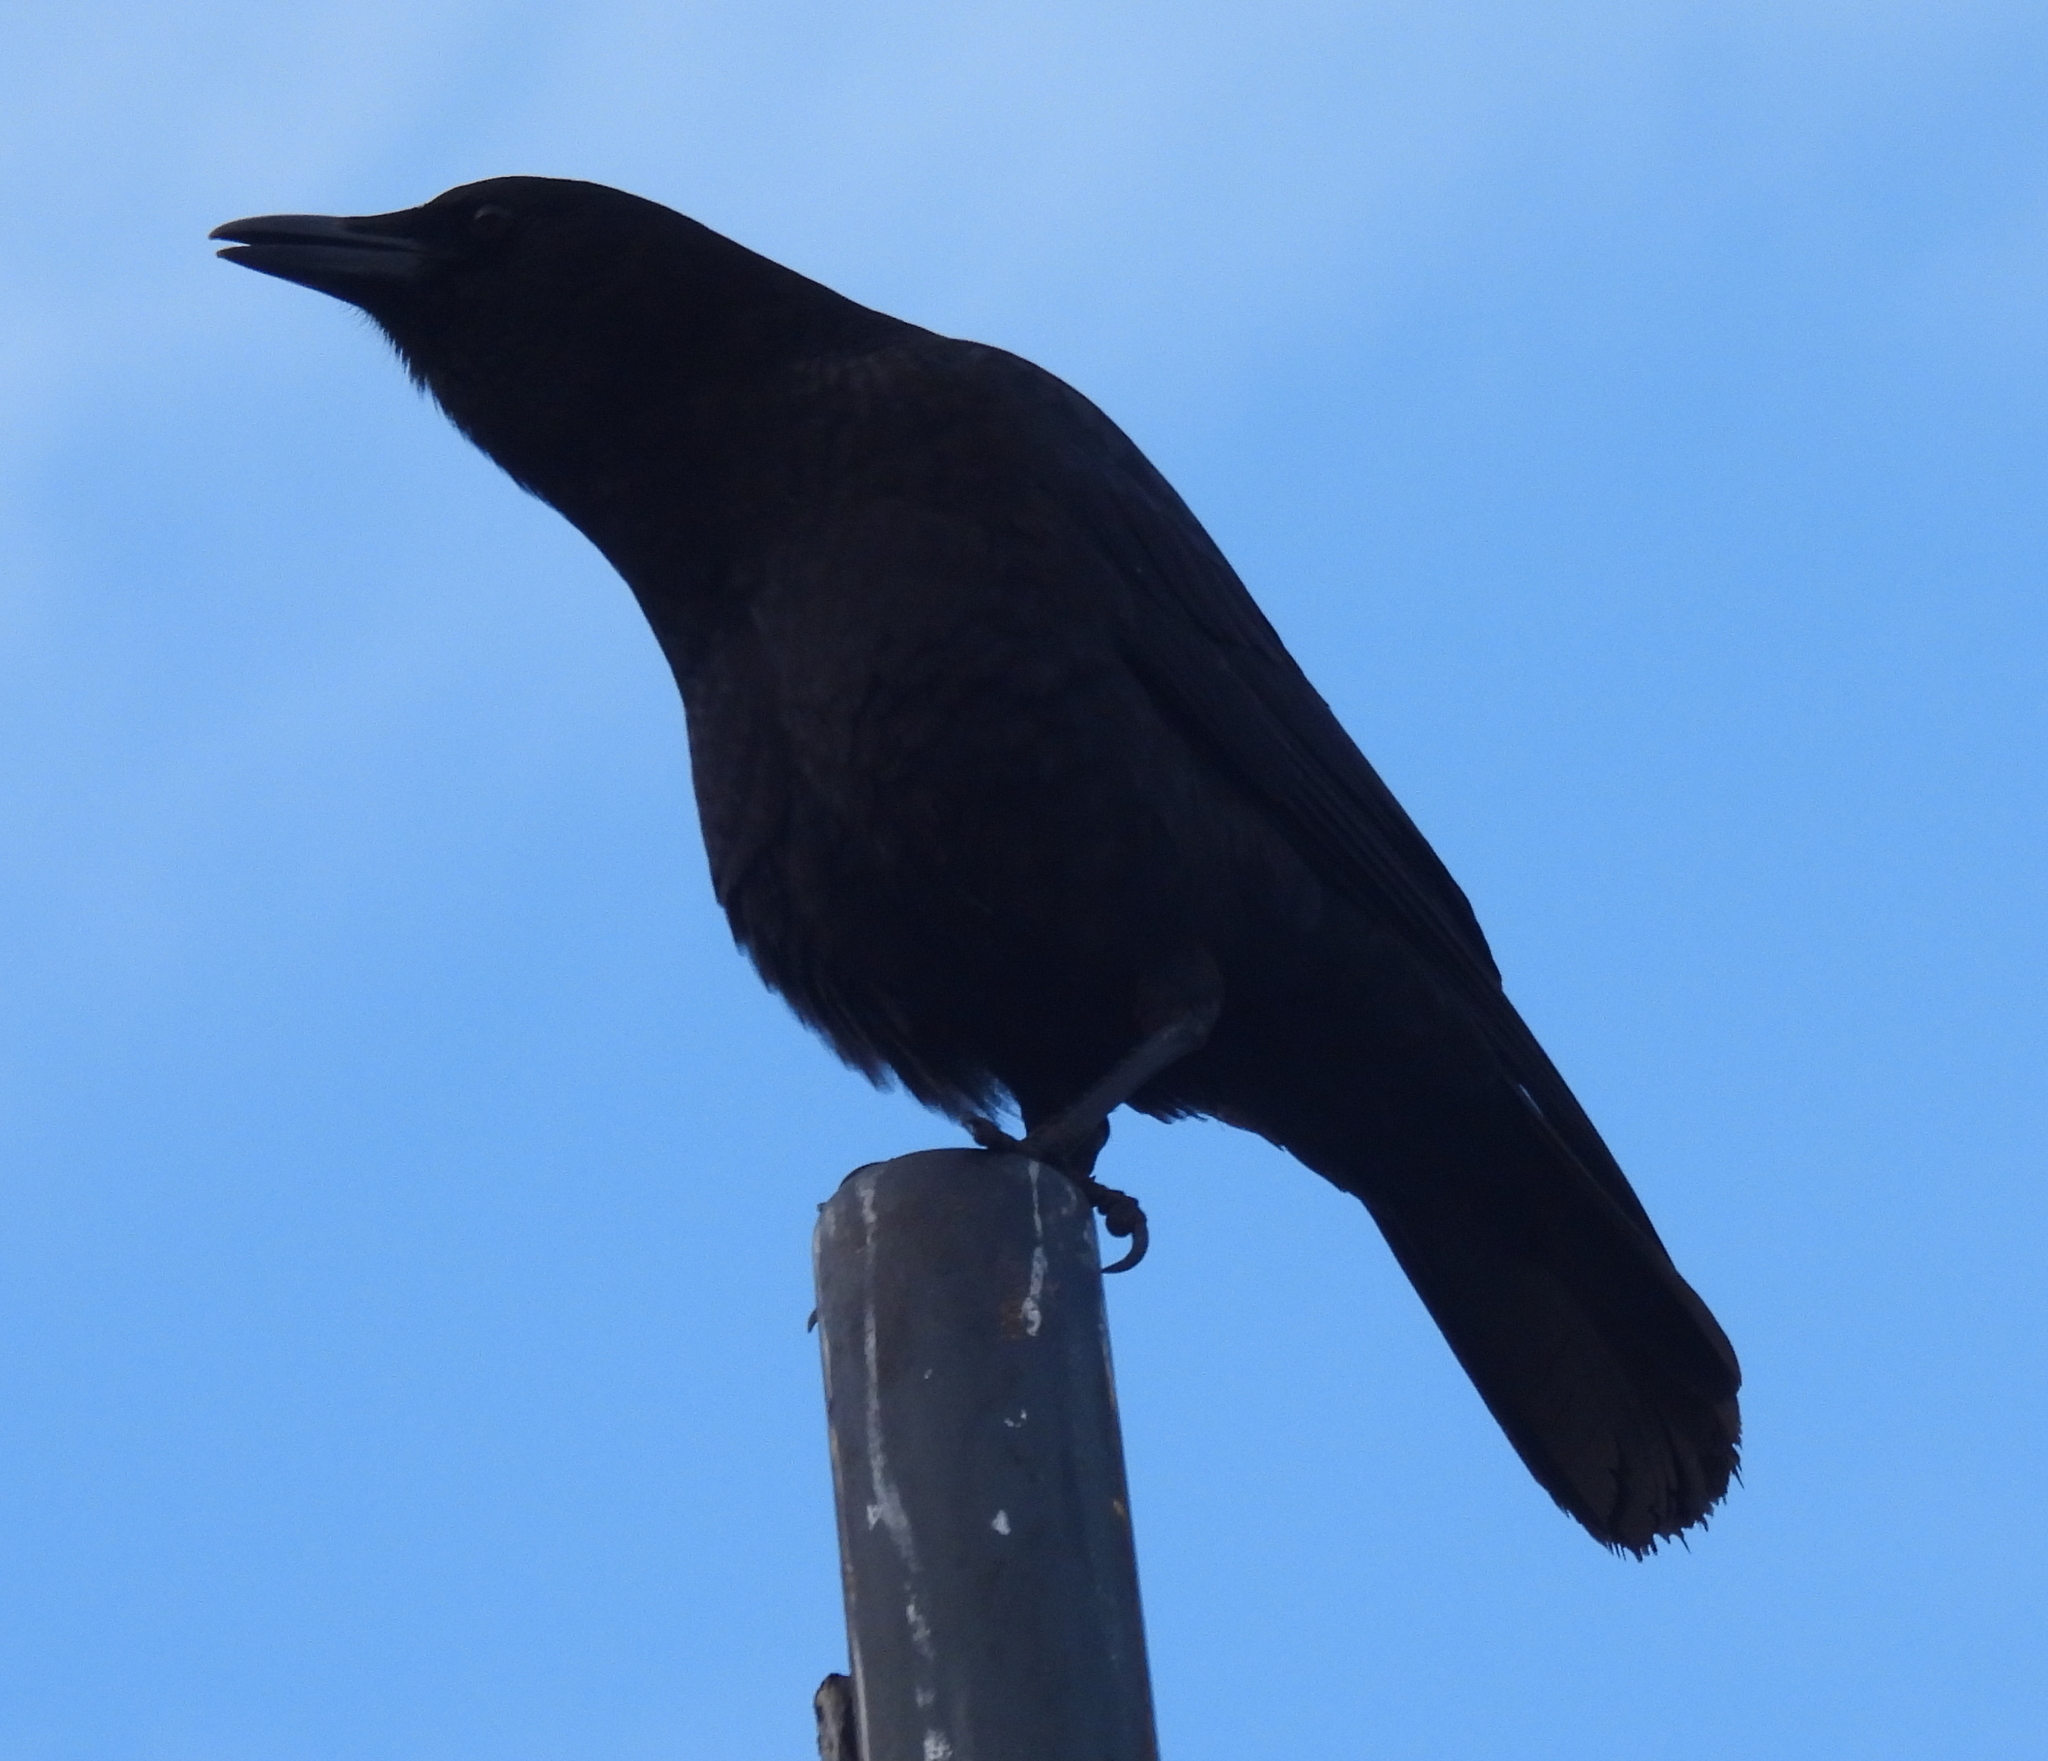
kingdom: Animalia
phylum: Chordata
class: Aves
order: Passeriformes
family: Corvidae
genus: Corvus
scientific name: Corvus brachyrhynchos
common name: American crow
